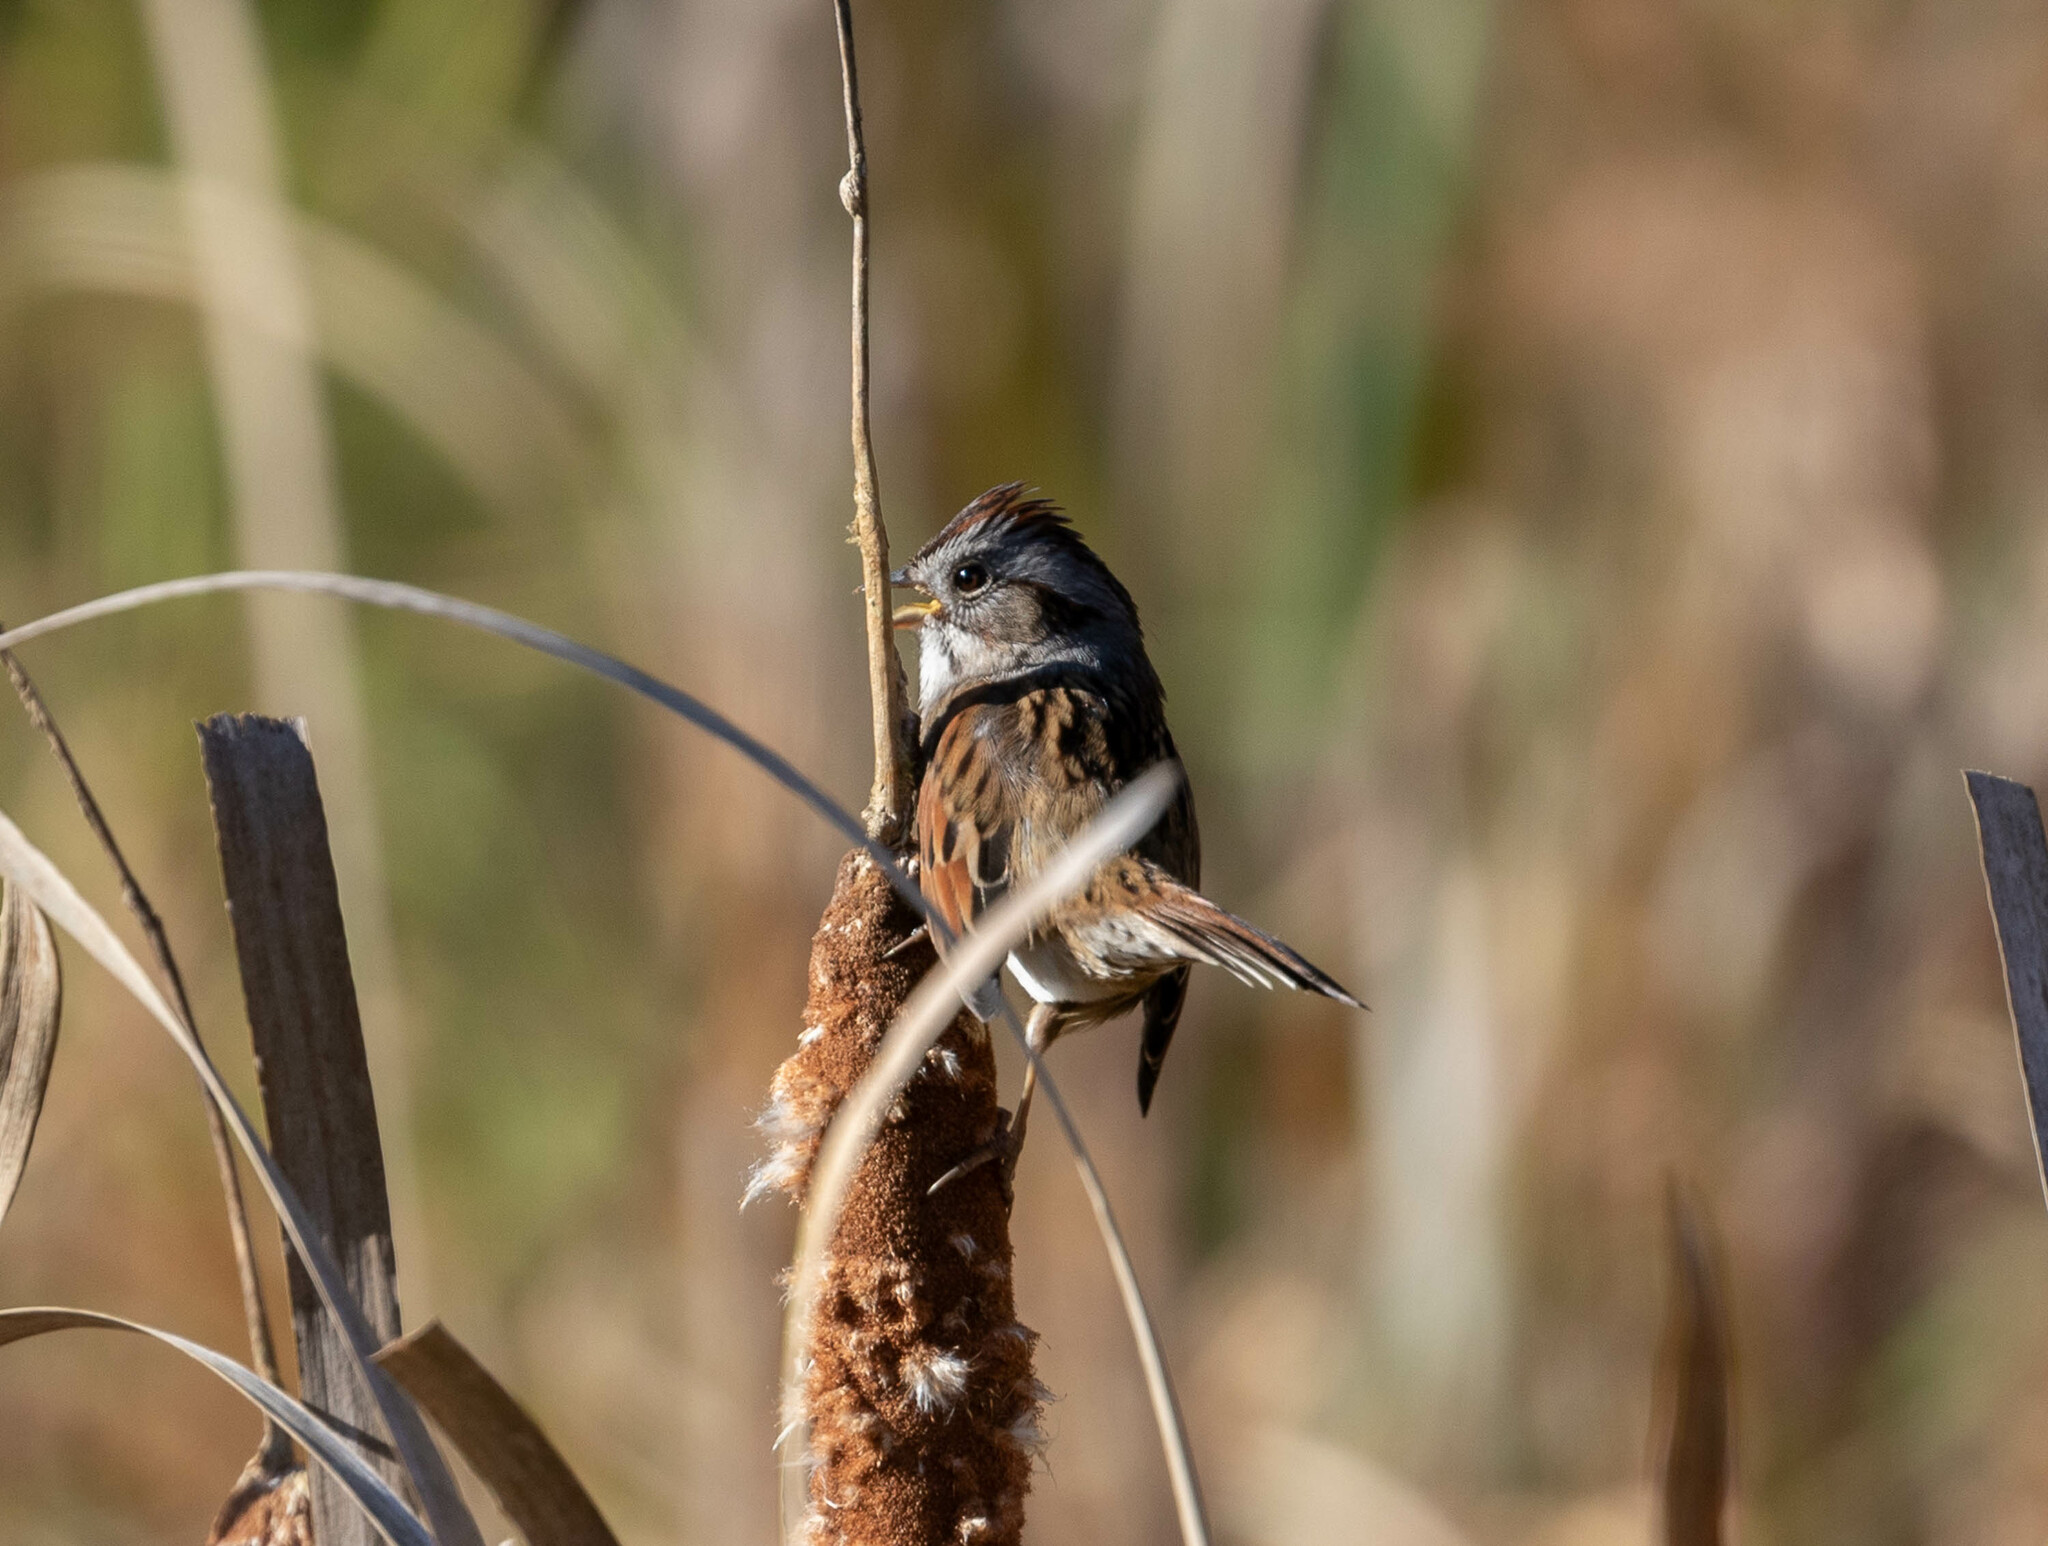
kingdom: Animalia
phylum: Chordata
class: Aves
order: Passeriformes
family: Passerellidae
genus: Melospiza
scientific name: Melospiza georgiana
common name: Swamp sparrow
